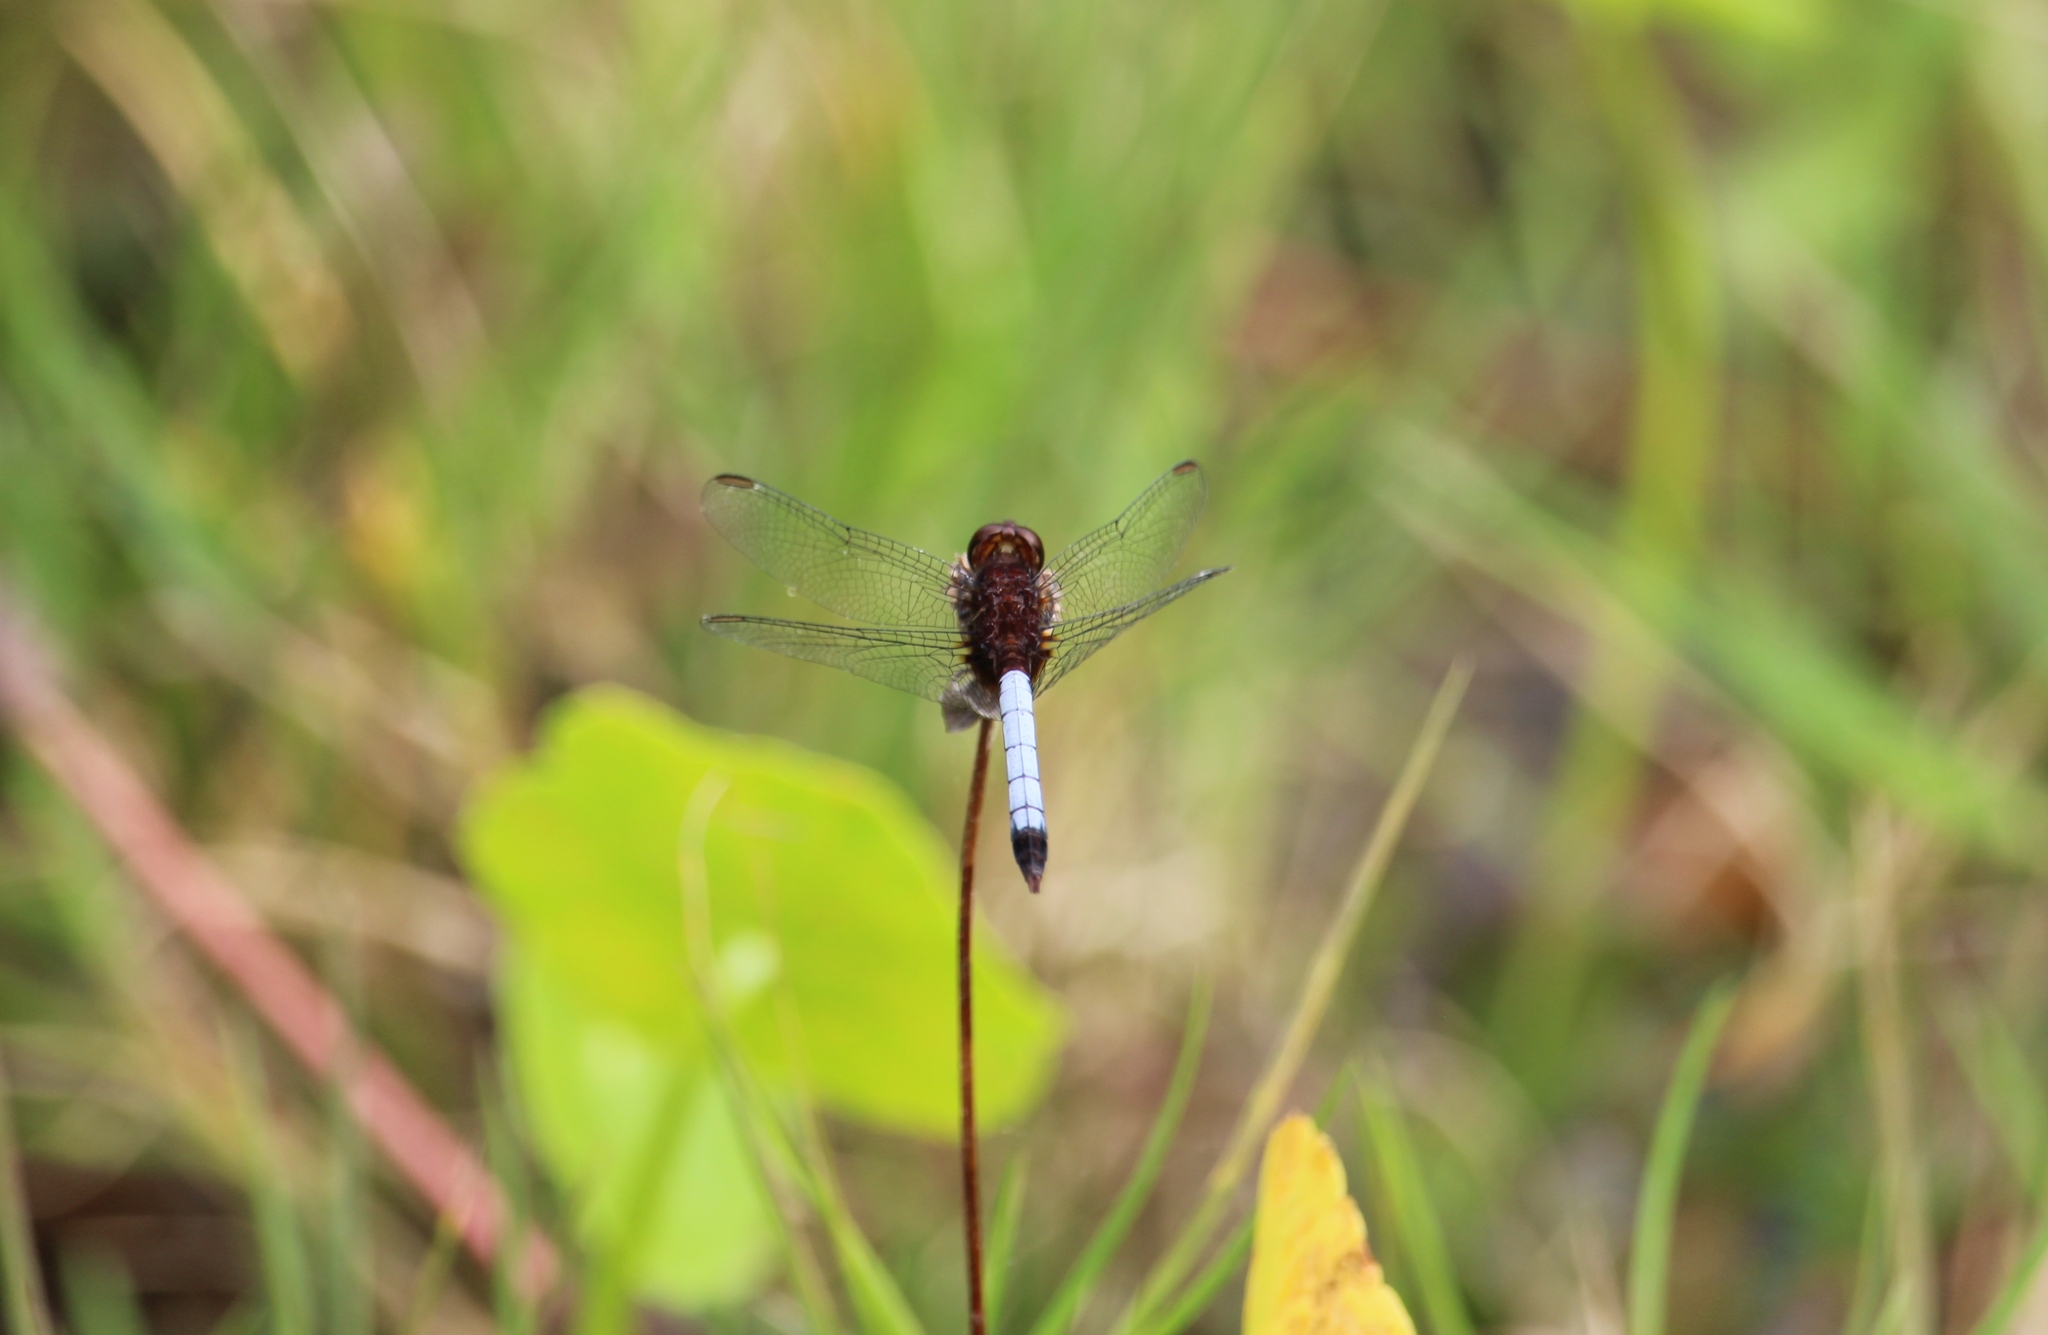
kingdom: Animalia
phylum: Arthropoda
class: Insecta
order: Odonata
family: Libellulidae
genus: Erythrodiplax
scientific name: Erythrodiplax fusca
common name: Red-faced dragonlet
